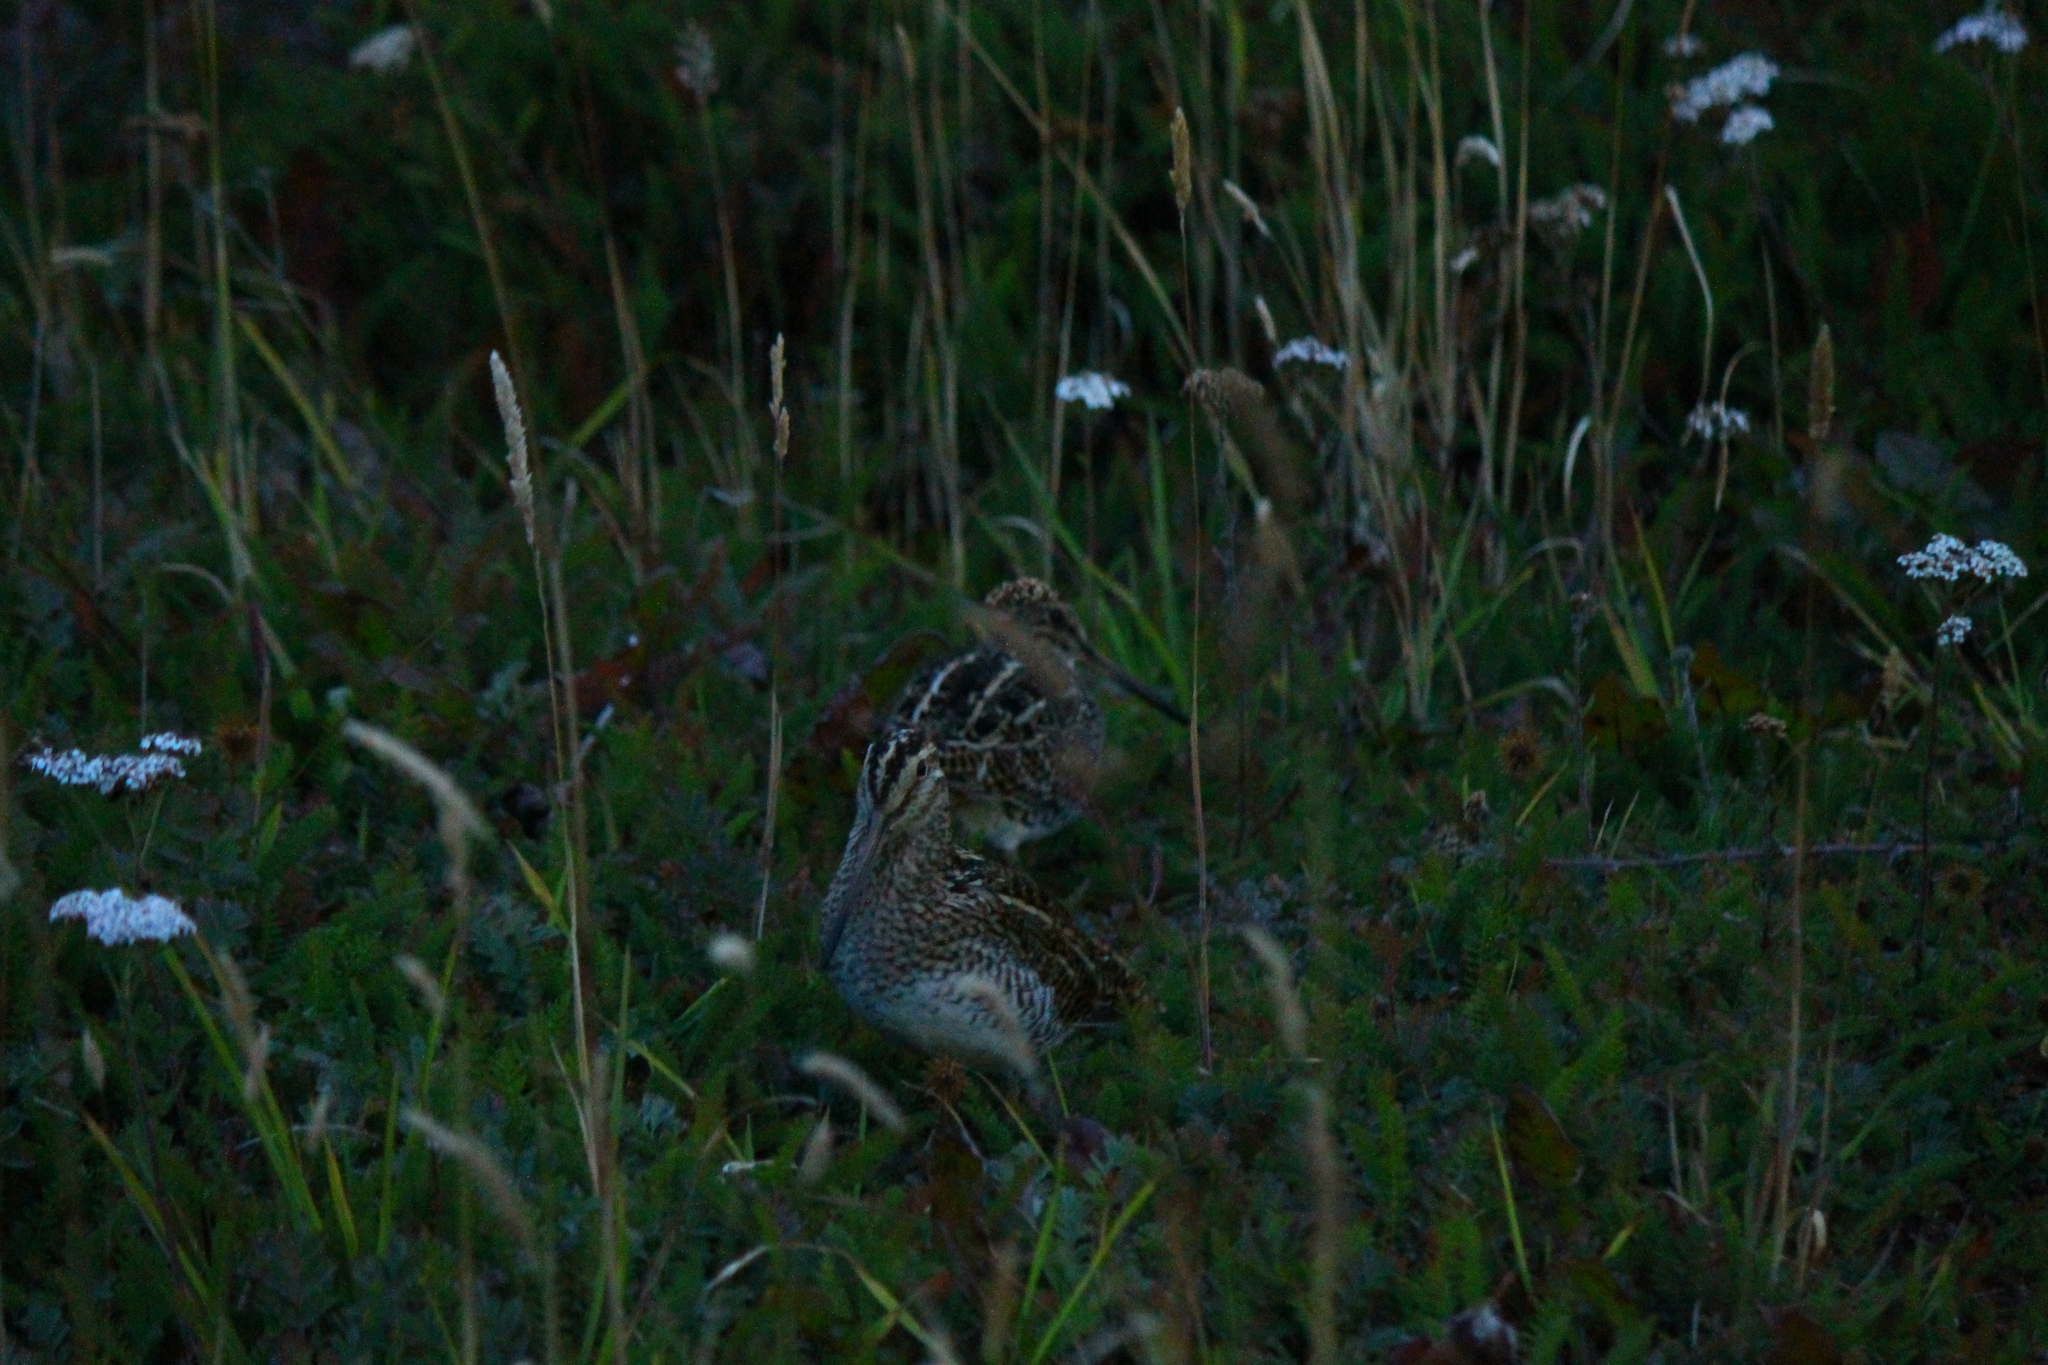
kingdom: Animalia
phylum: Chordata
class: Aves
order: Charadriiformes
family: Scolopacidae
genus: Gallinago
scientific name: Gallinago magellanica
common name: Magellanic snipe
